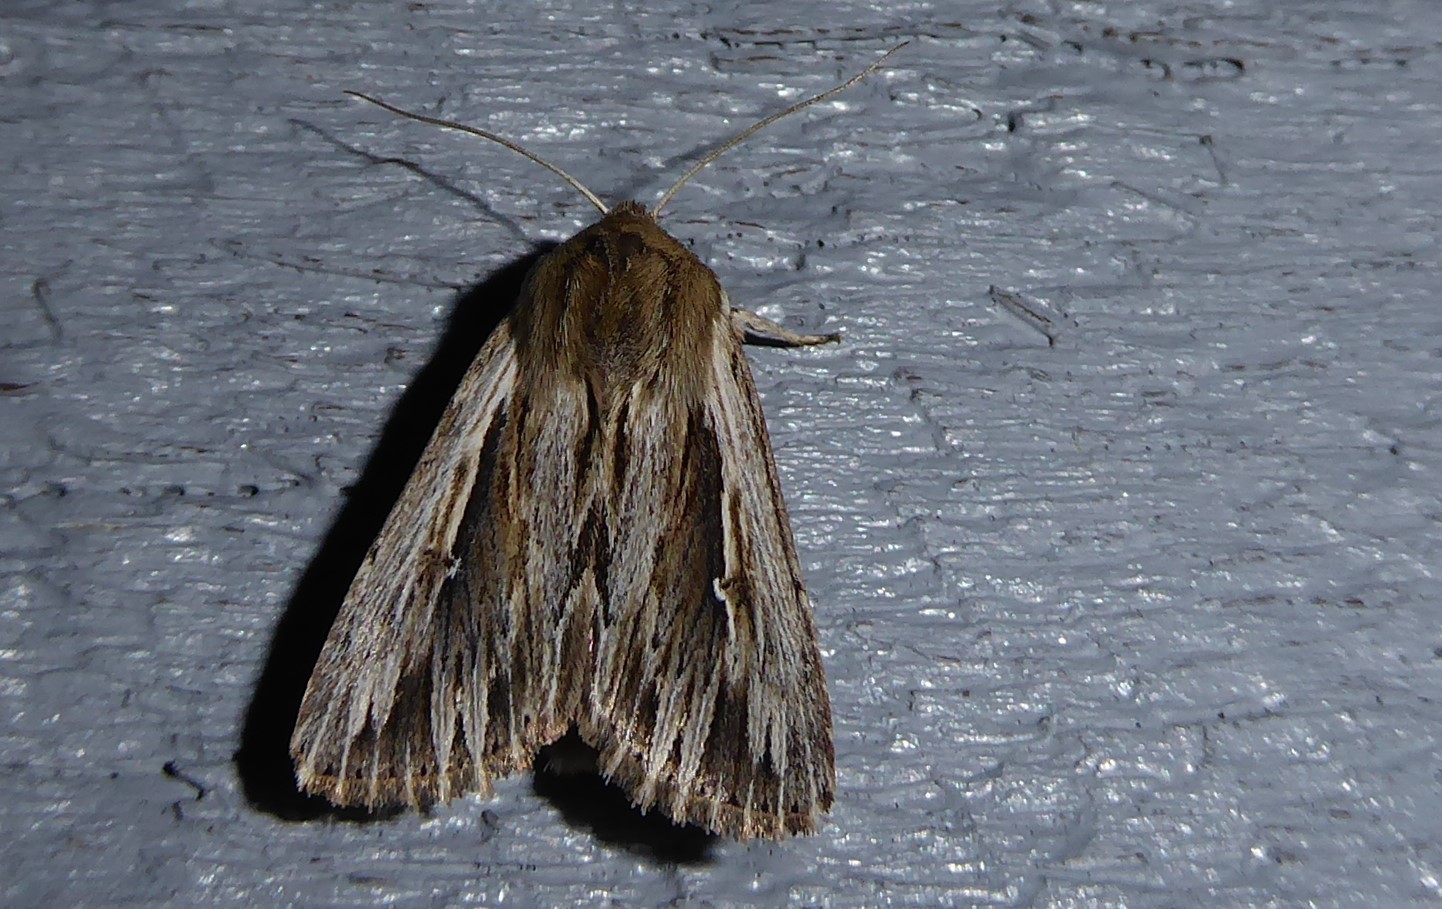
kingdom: Animalia
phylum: Arthropoda
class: Insecta
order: Lepidoptera
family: Noctuidae
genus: Persectania
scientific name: Persectania aversa
